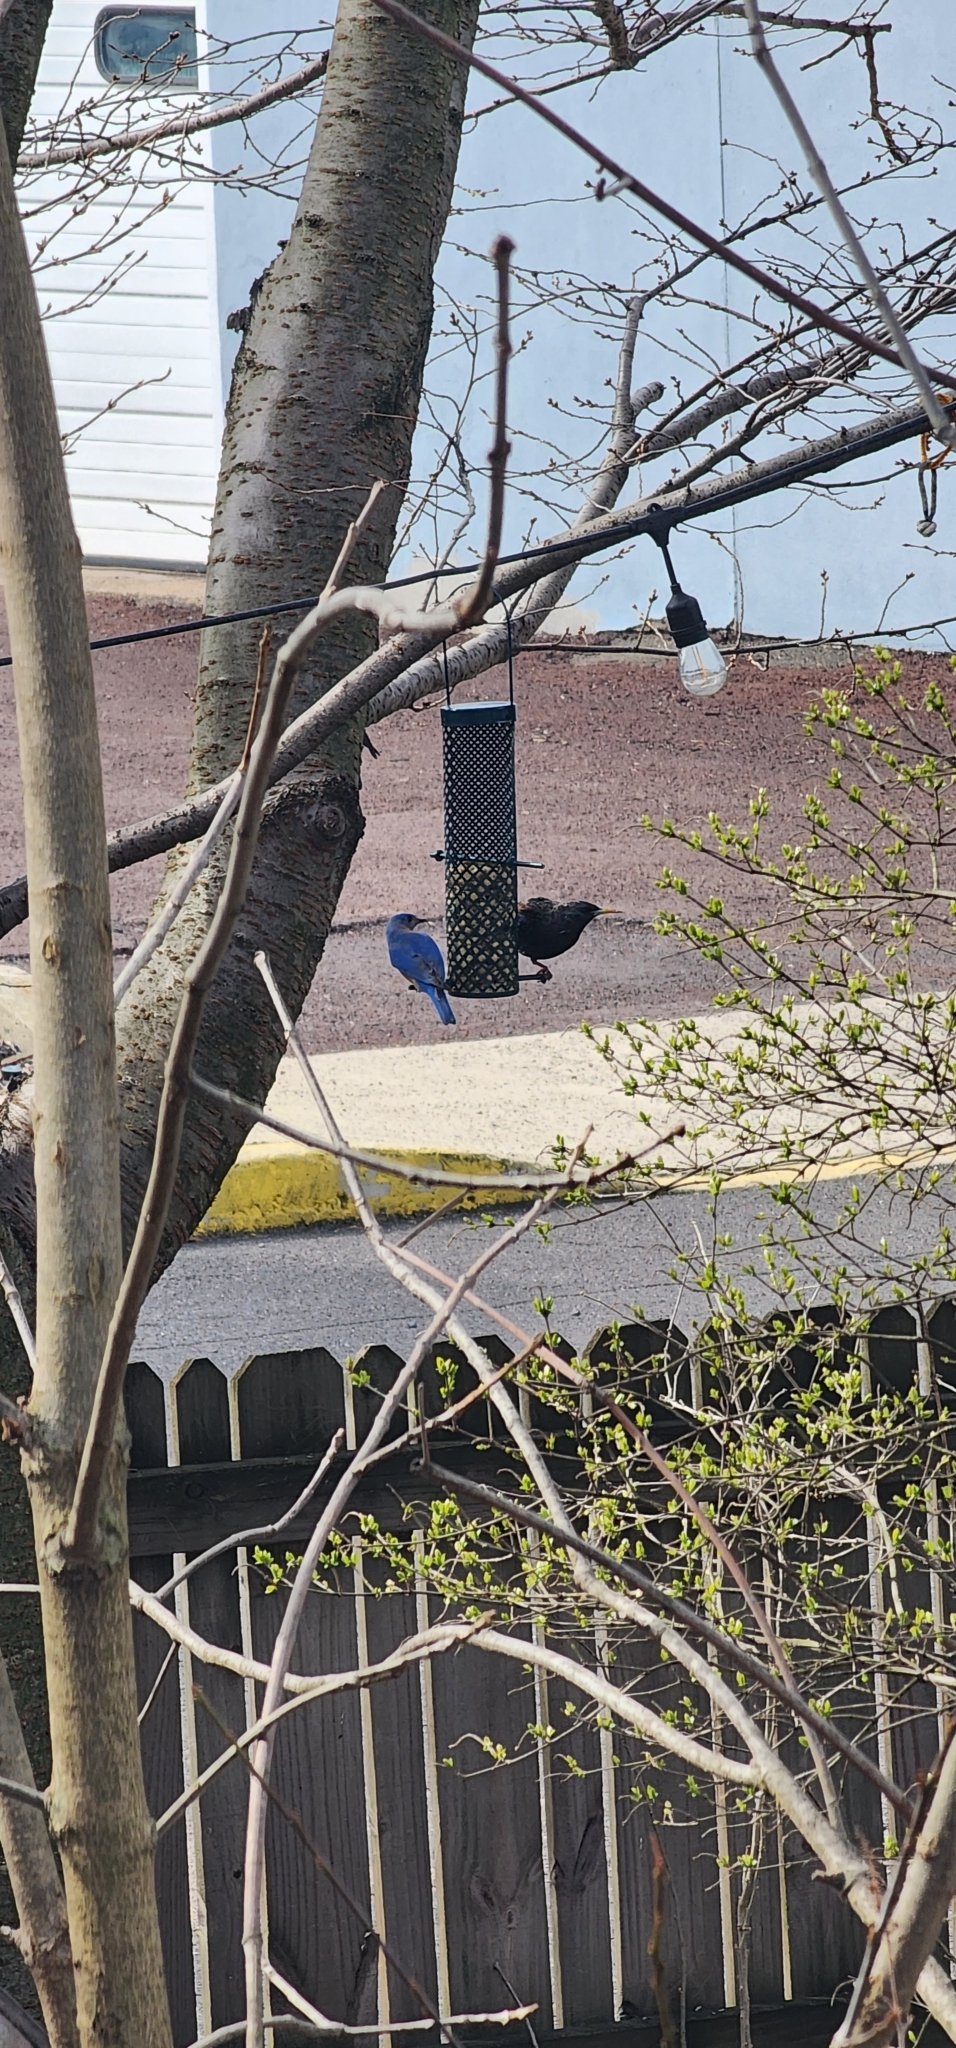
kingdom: Animalia
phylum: Chordata
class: Aves
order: Passeriformes
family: Turdidae
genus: Sialia
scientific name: Sialia sialis
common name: Eastern bluebird
